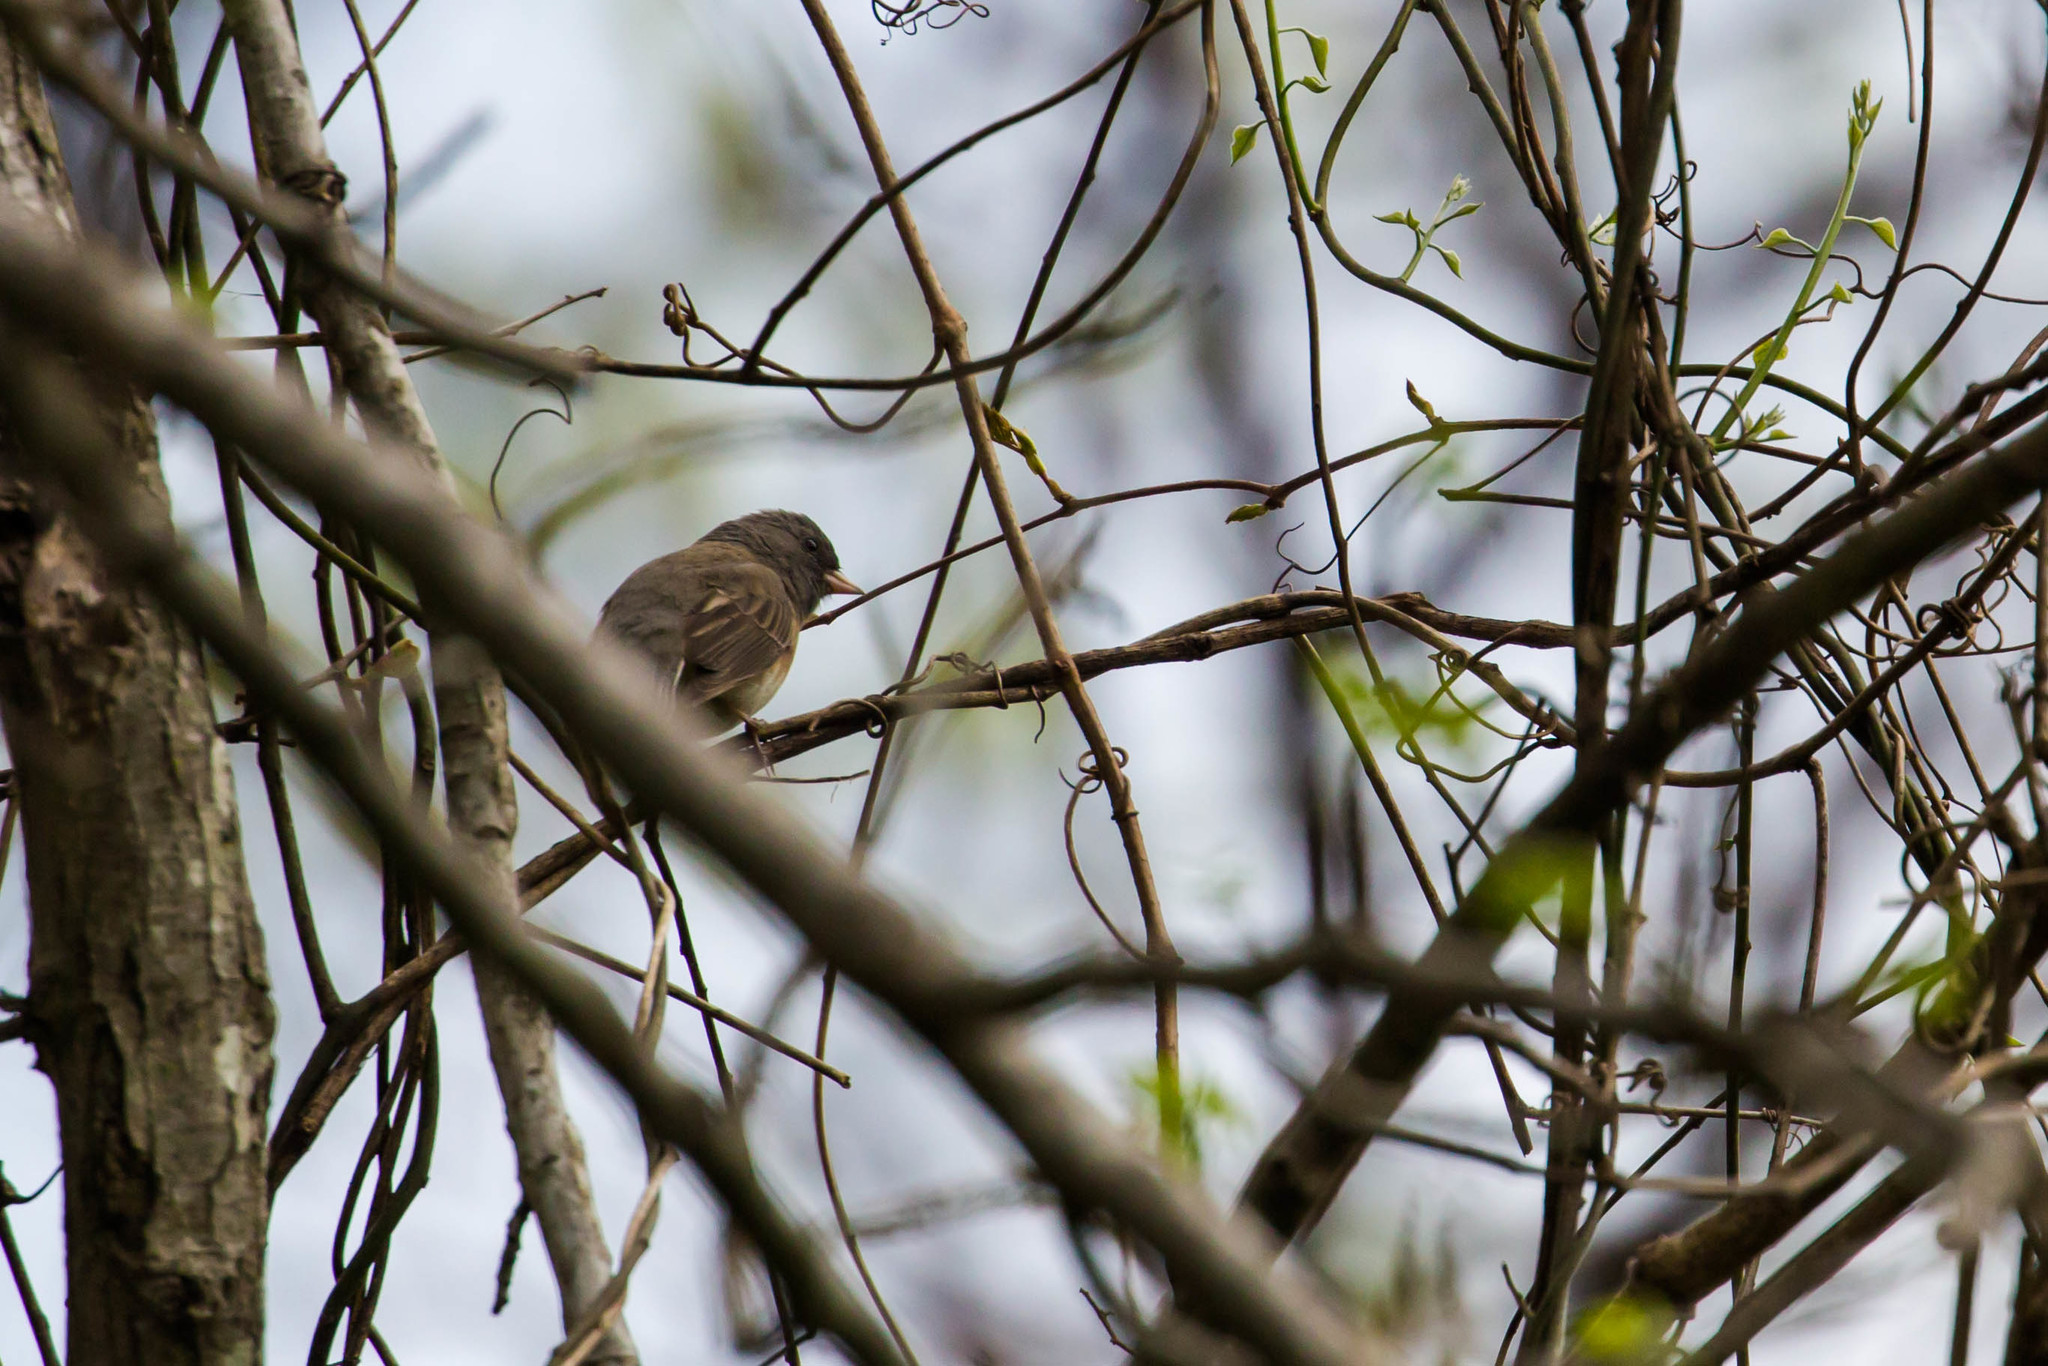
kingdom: Animalia
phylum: Chordata
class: Aves
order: Passeriformes
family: Passerellidae
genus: Junco
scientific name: Junco hyemalis
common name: Dark-eyed junco
